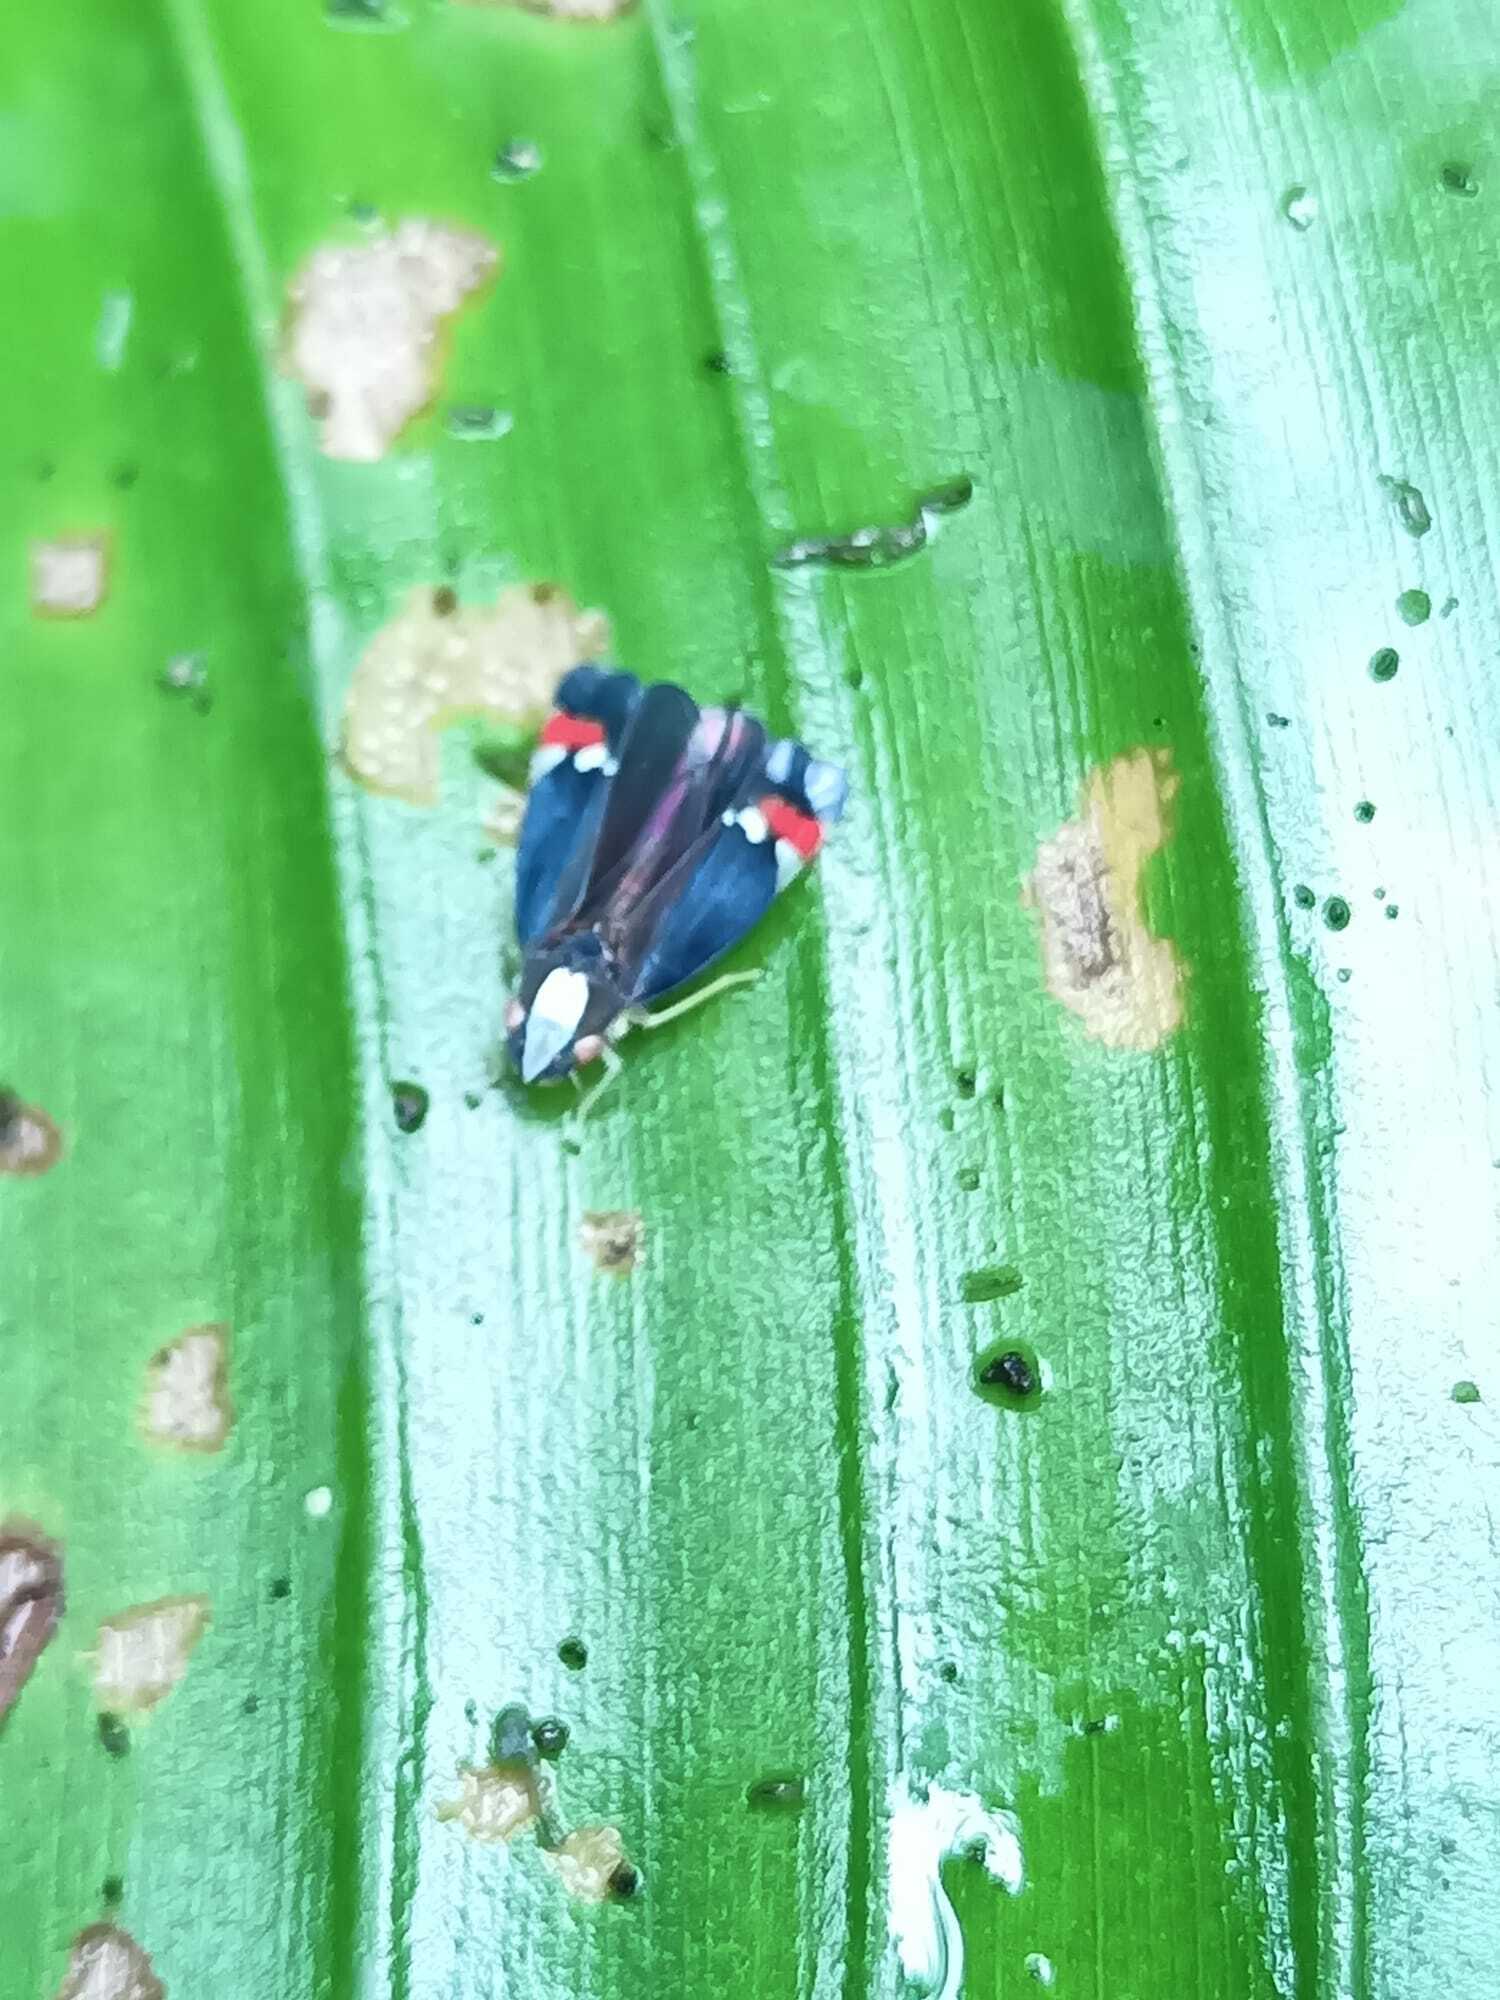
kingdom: Animalia
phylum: Arthropoda
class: Insecta
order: Hemiptera
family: Cicadellidae
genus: Erythrogonia
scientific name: Erythrogonia jumaca
